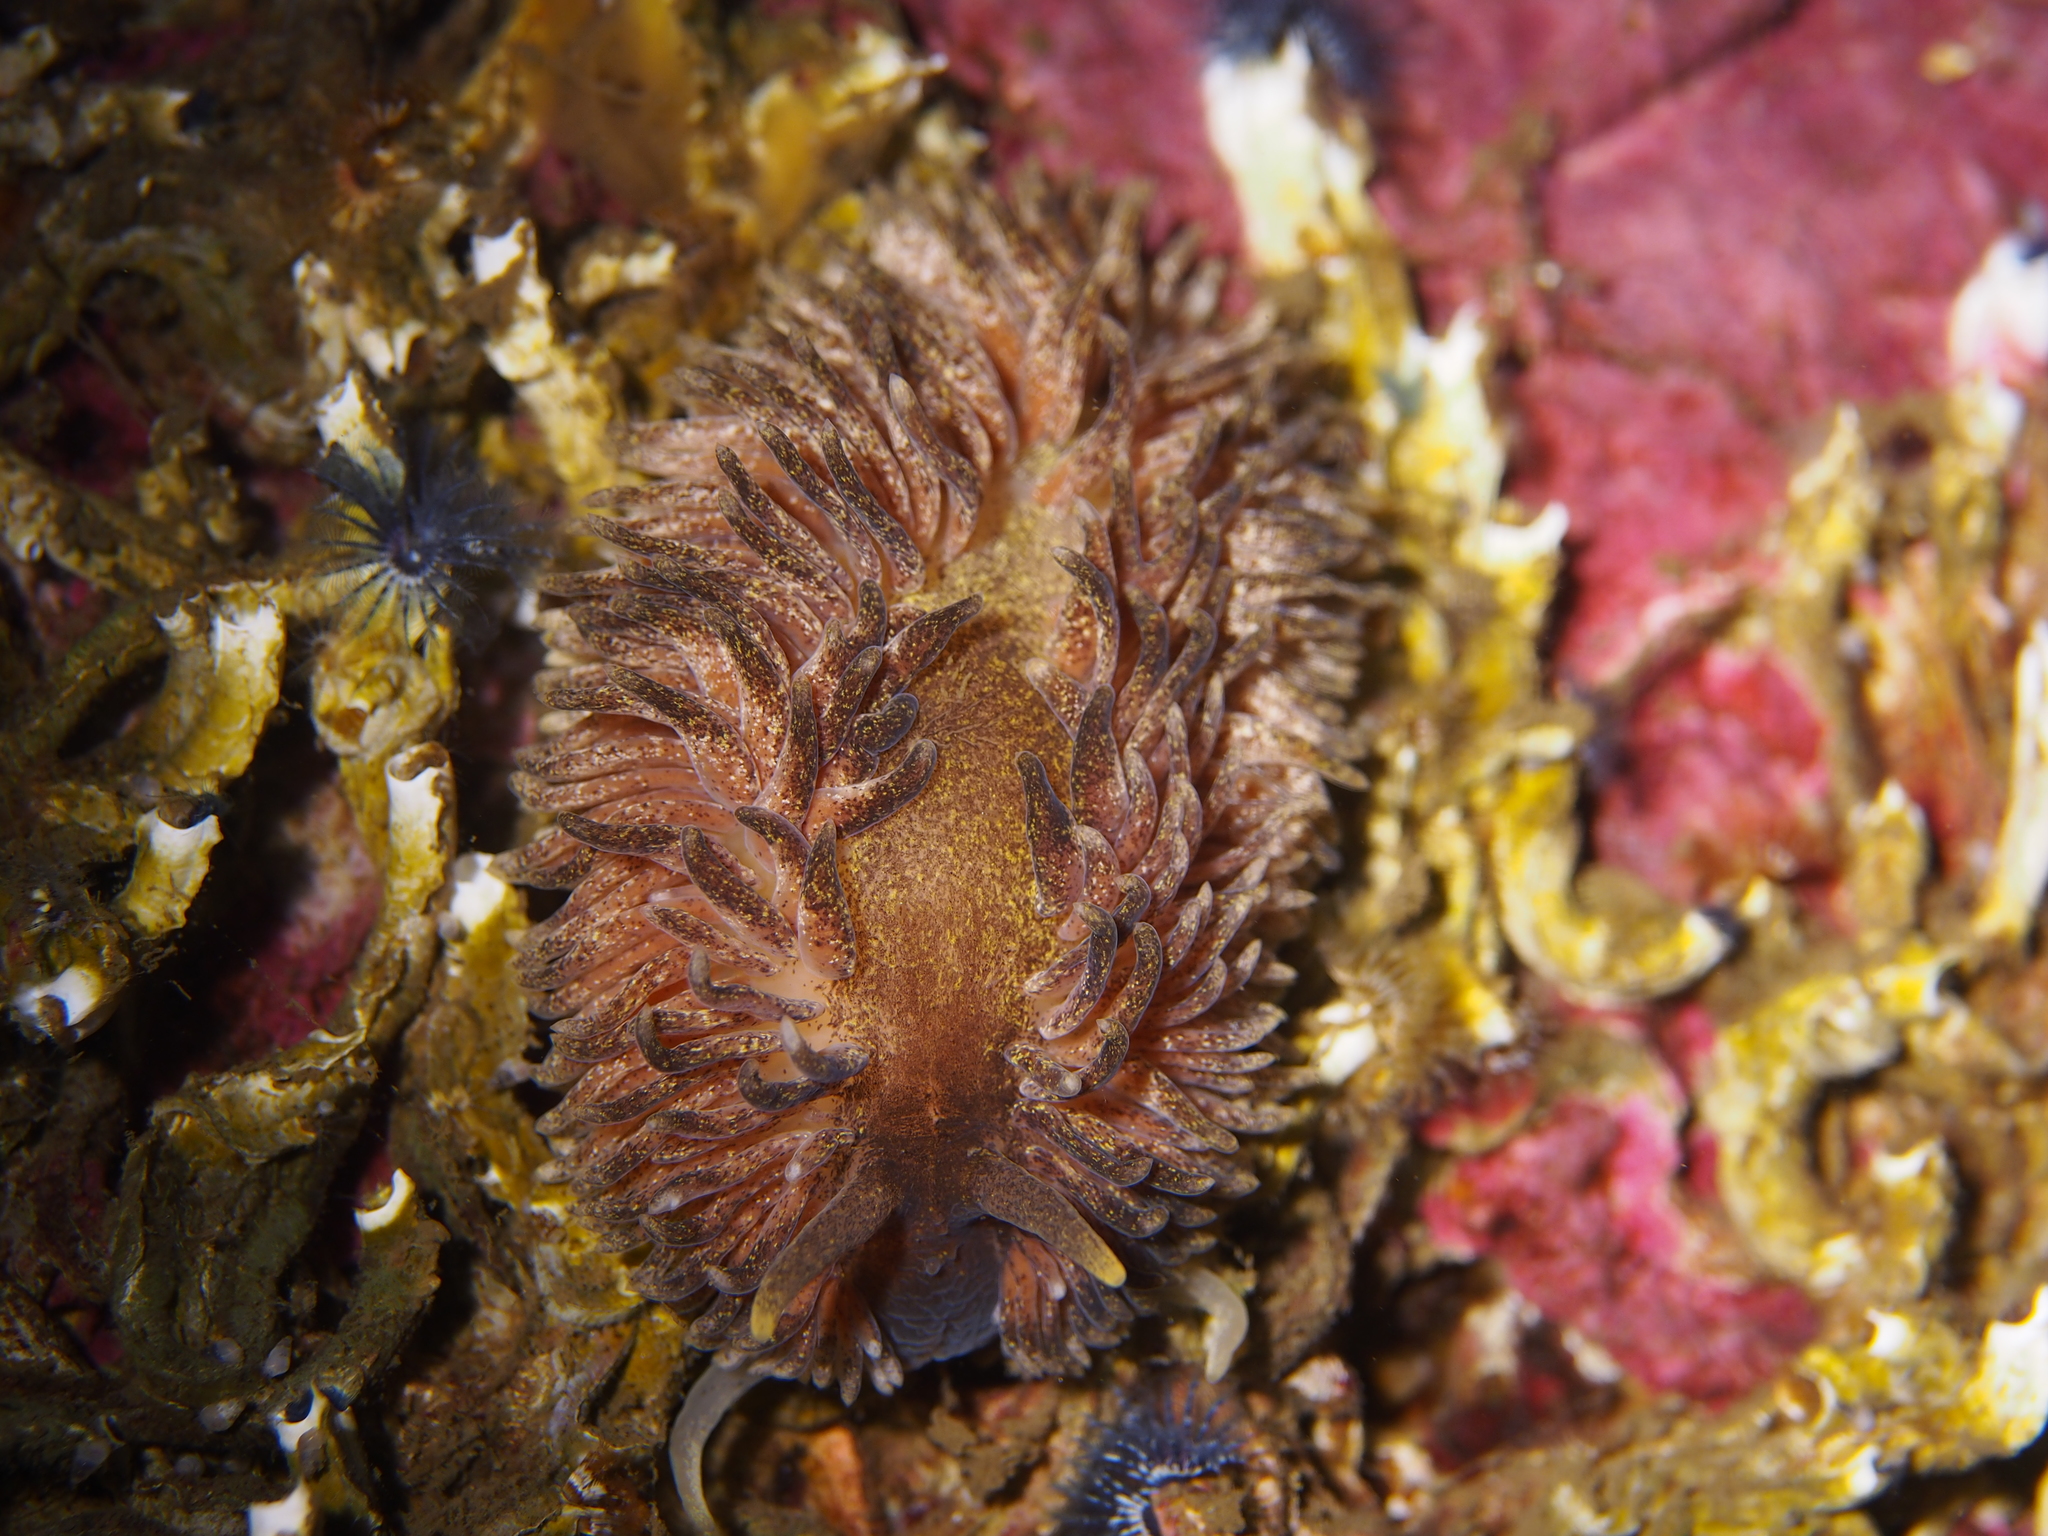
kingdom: Animalia
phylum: Mollusca
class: Gastropoda
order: Nudibranchia
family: Aeolidiidae
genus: Aeolidia
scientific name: Aeolidia papillosa
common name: Common grey sea slug
